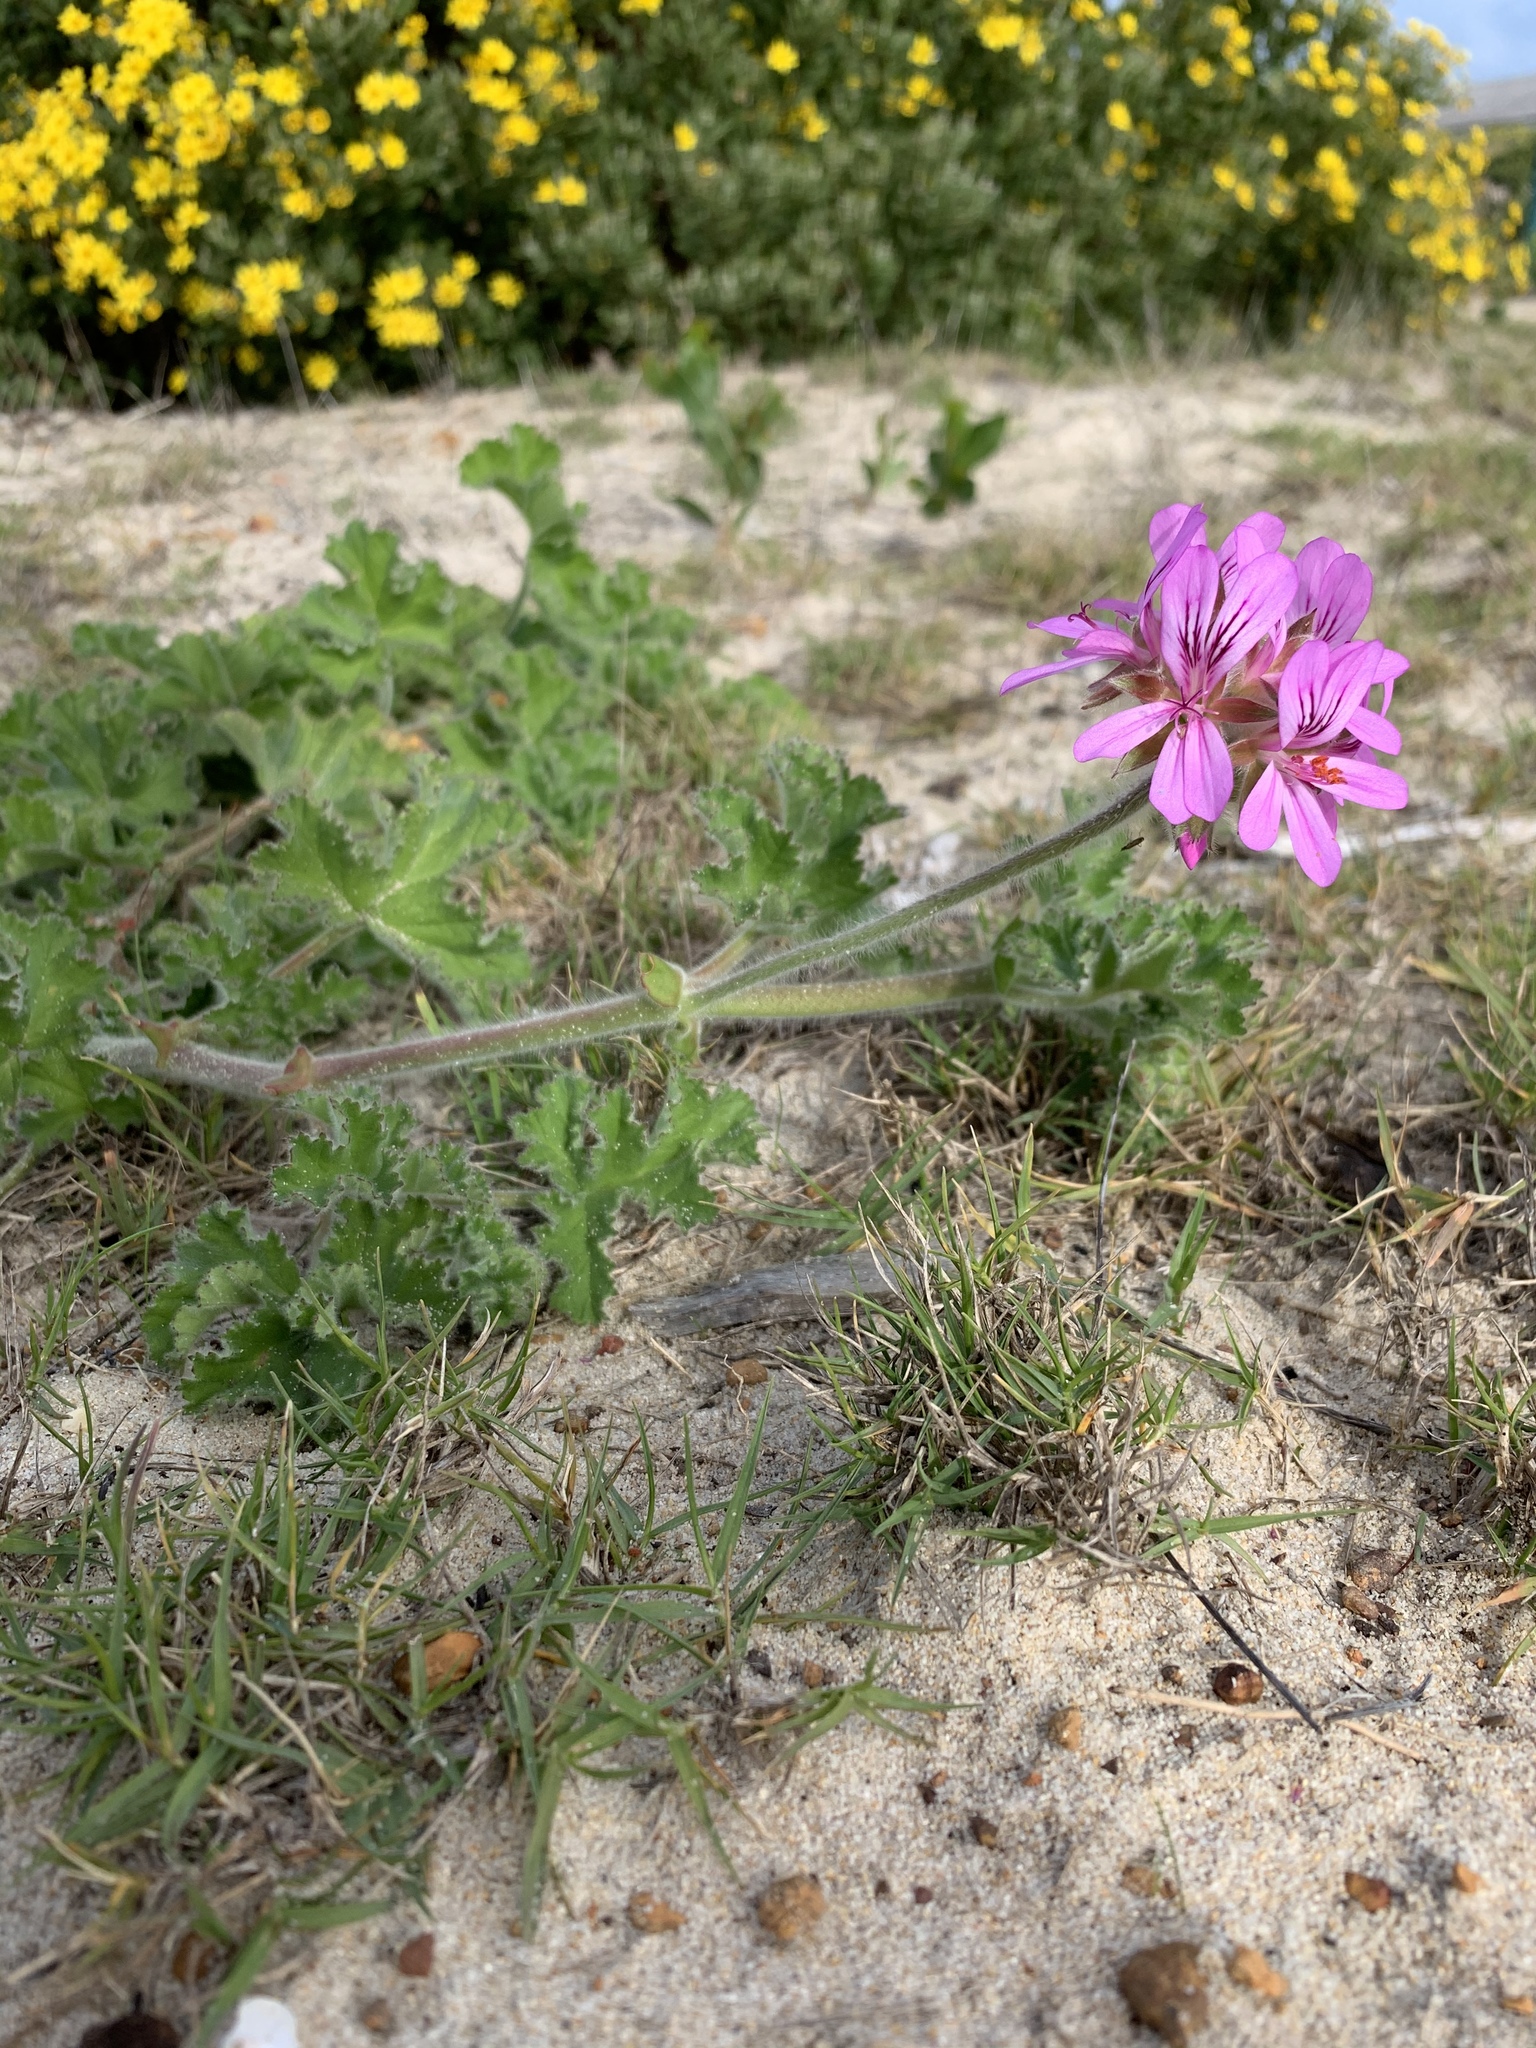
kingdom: Plantae
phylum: Tracheophyta
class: Magnoliopsida
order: Geraniales
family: Geraniaceae
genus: Pelargonium
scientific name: Pelargonium capitatum
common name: Rose scented geranium
